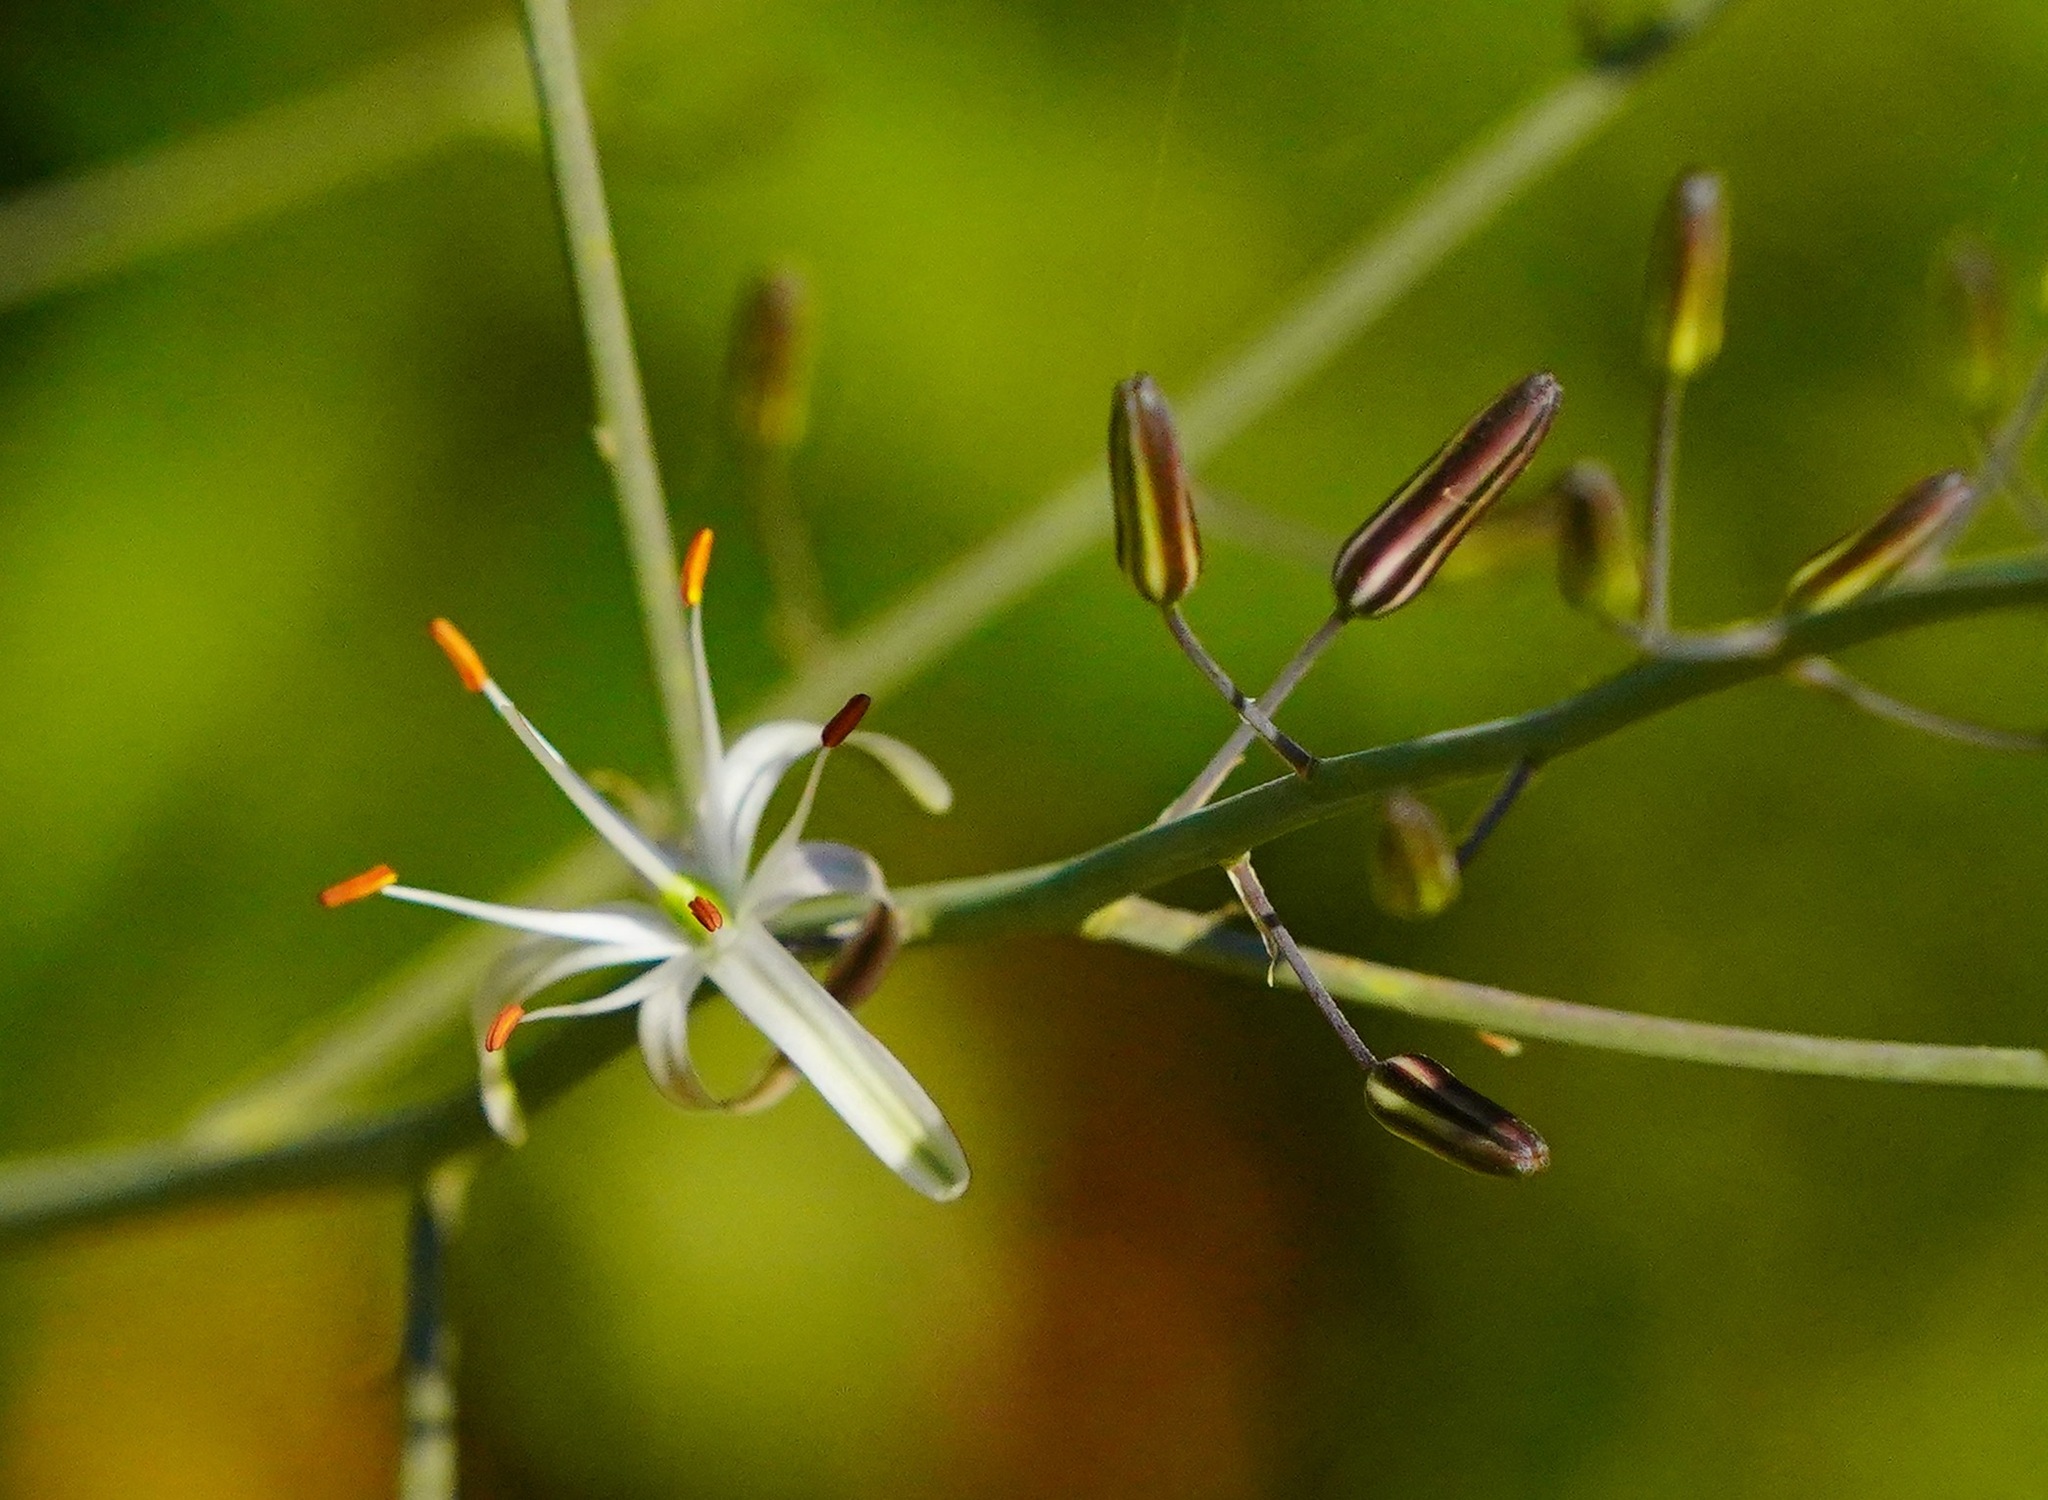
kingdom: Plantae
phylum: Tracheophyta
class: Liliopsida
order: Asparagales
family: Asparagaceae
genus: Chlorogalum
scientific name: Chlorogalum pomeridianum
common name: Amole
